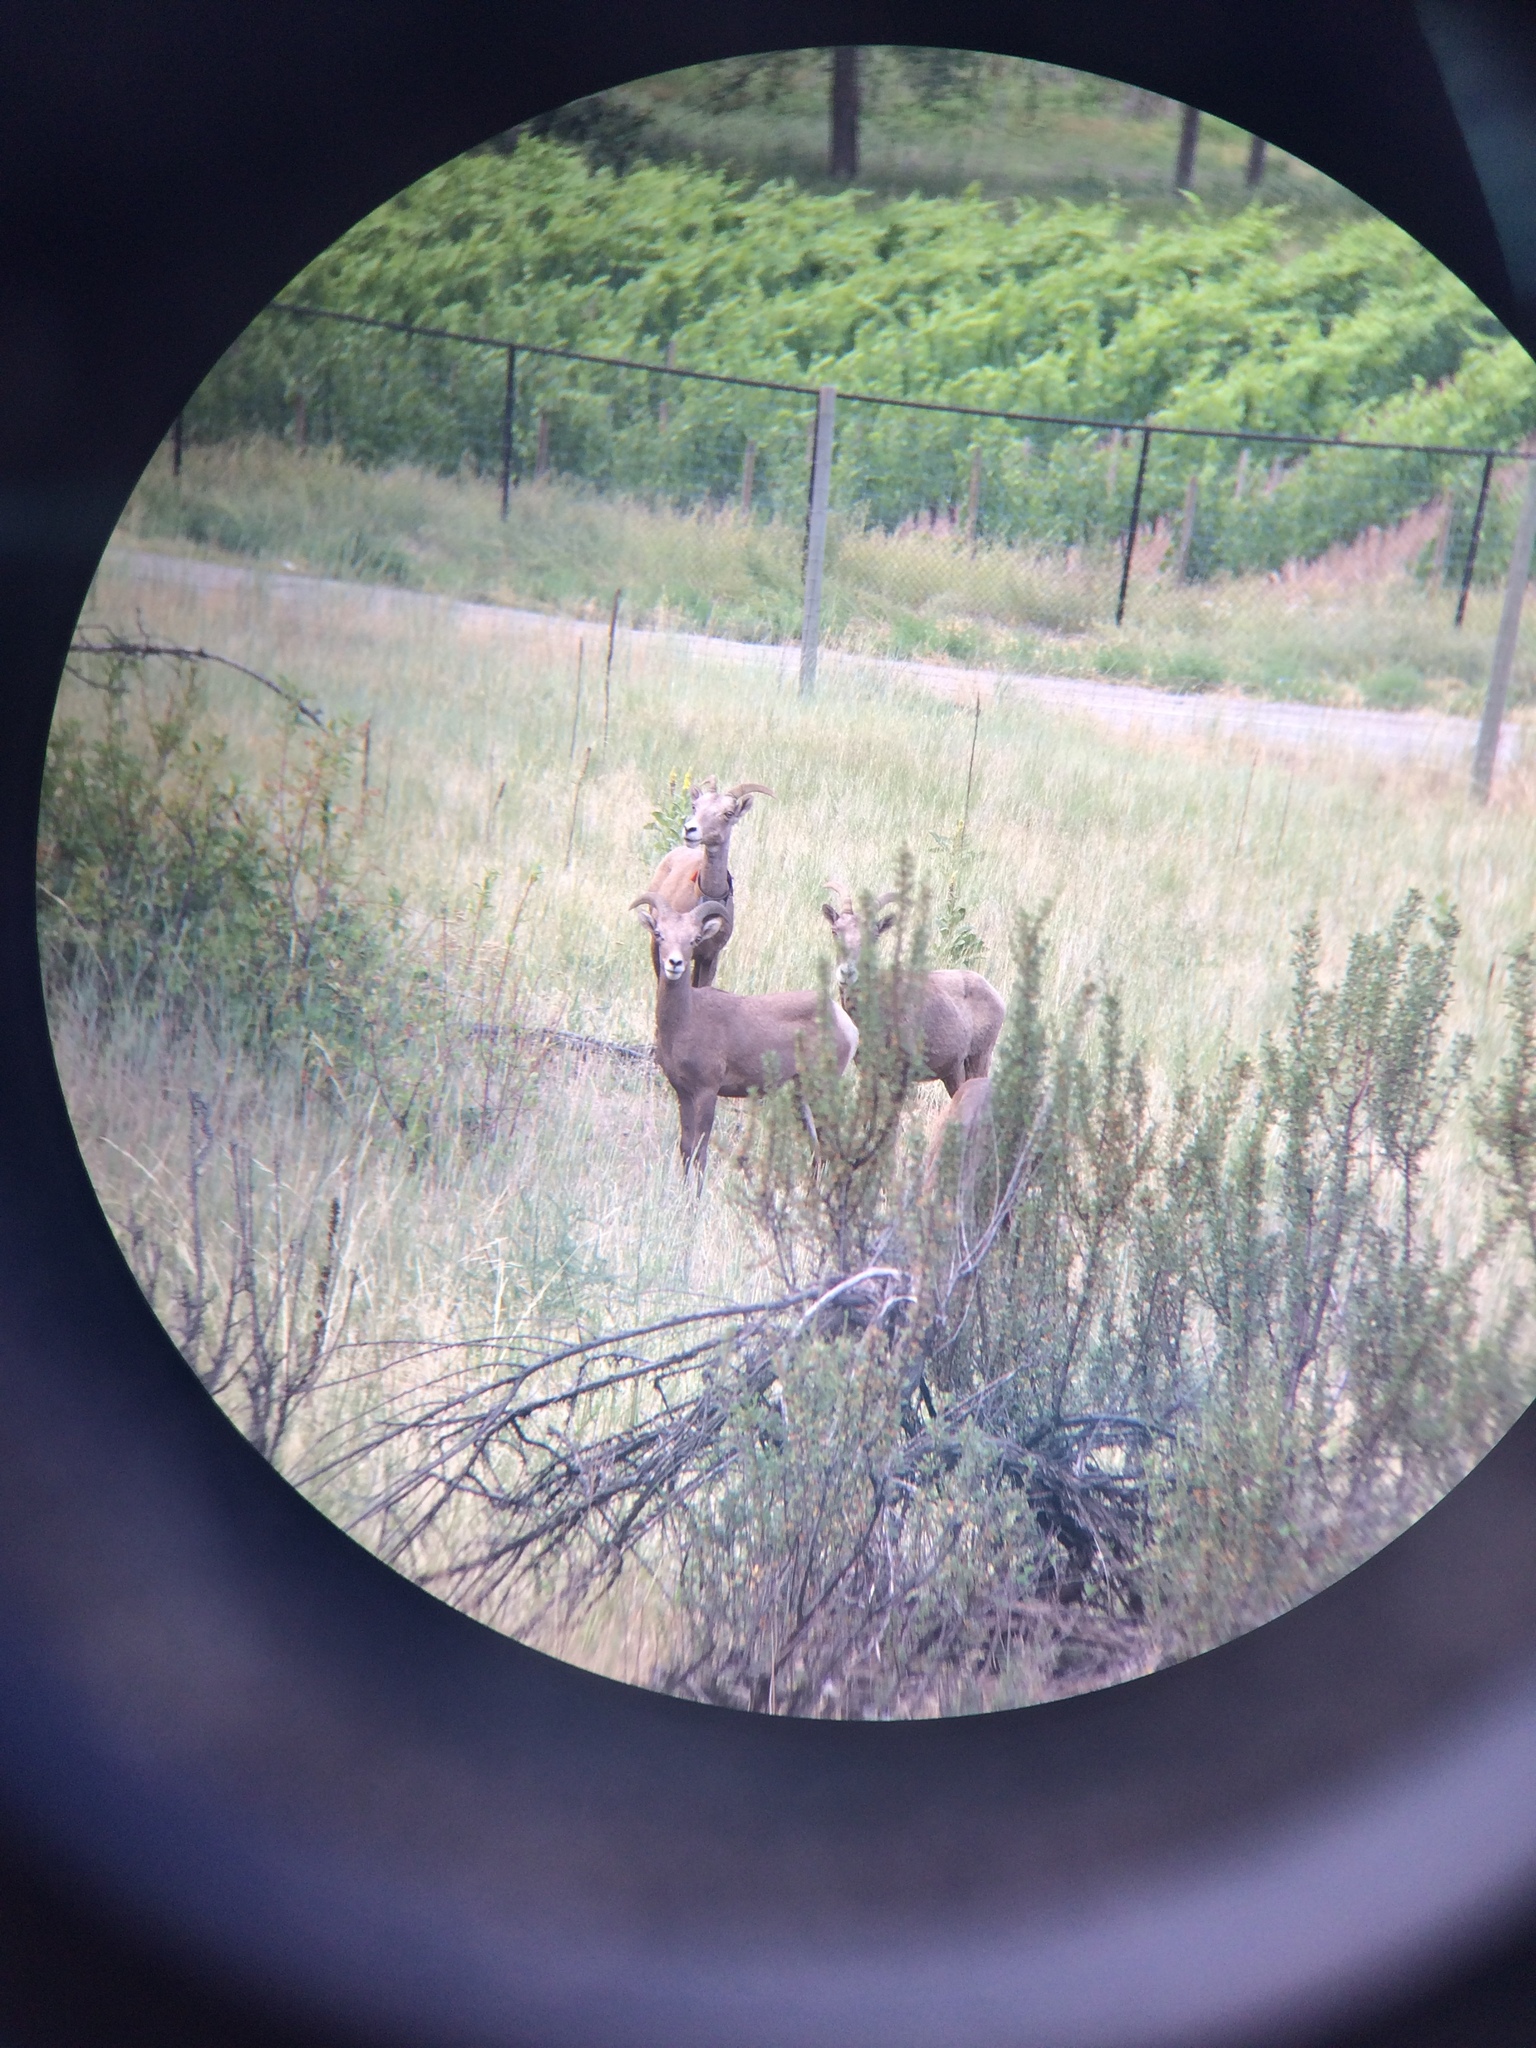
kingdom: Animalia
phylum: Chordata
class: Mammalia
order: Artiodactyla
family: Bovidae
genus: Ovis
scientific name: Ovis canadensis
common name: Bighorn sheep
